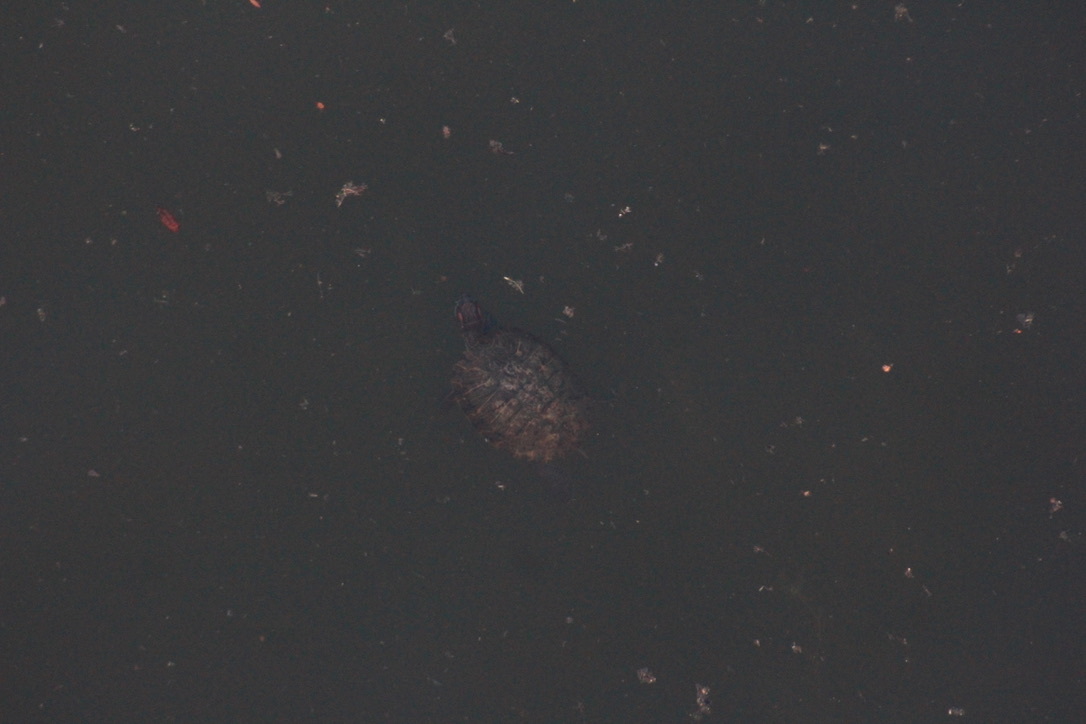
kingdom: Animalia
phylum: Chordata
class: Testudines
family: Emydidae
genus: Trachemys
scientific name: Trachemys scripta
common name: Slider
